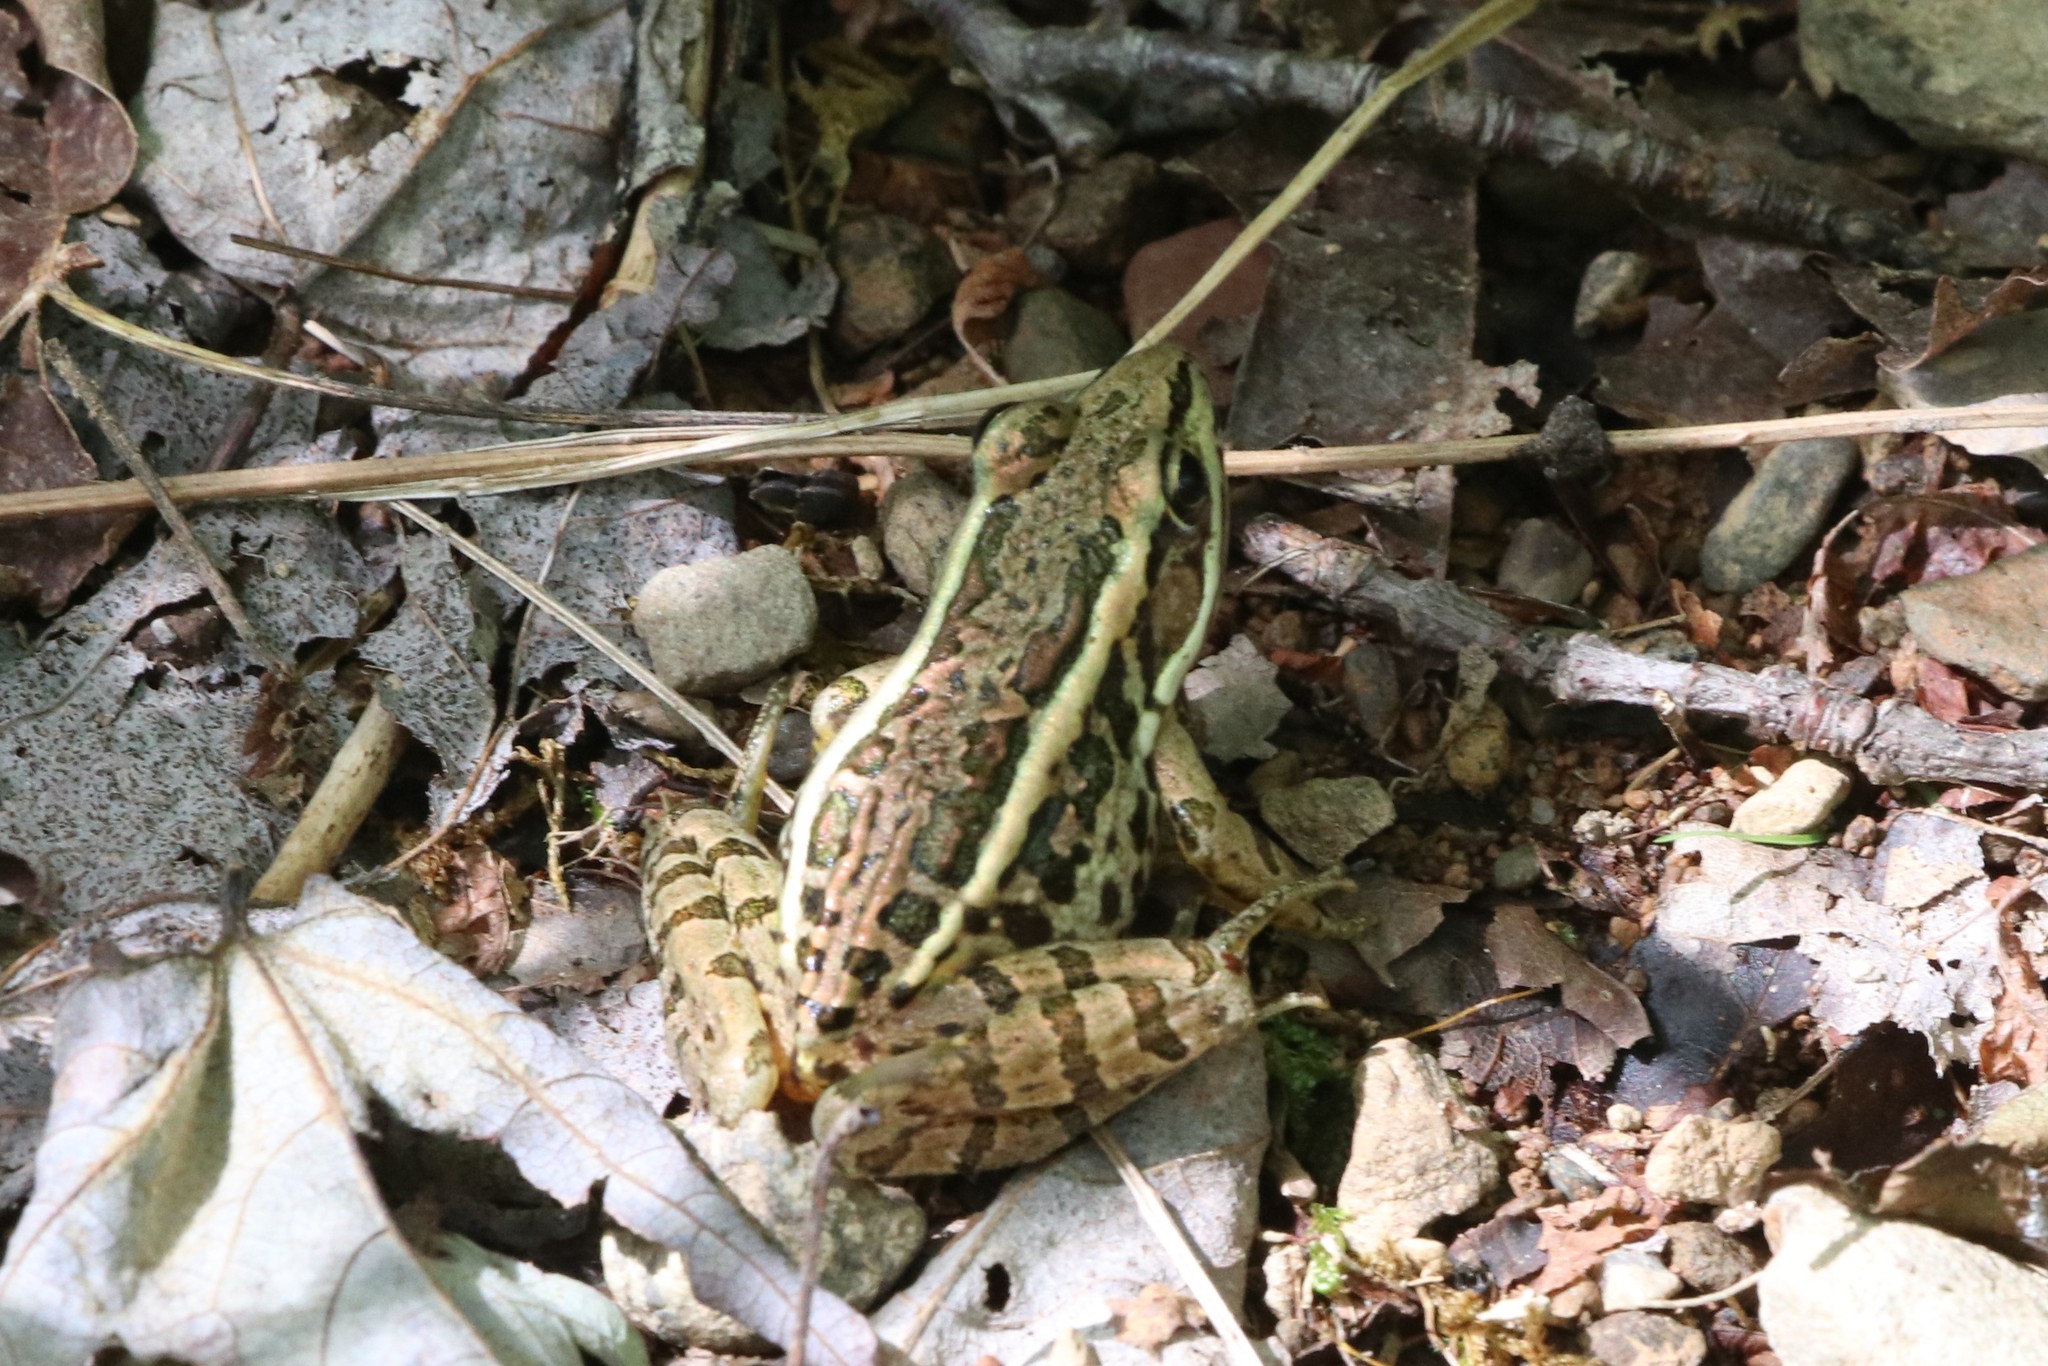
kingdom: Animalia
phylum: Chordata
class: Amphibia
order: Anura
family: Ranidae
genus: Lithobates
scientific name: Lithobates palustris
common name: Pickerel frog
